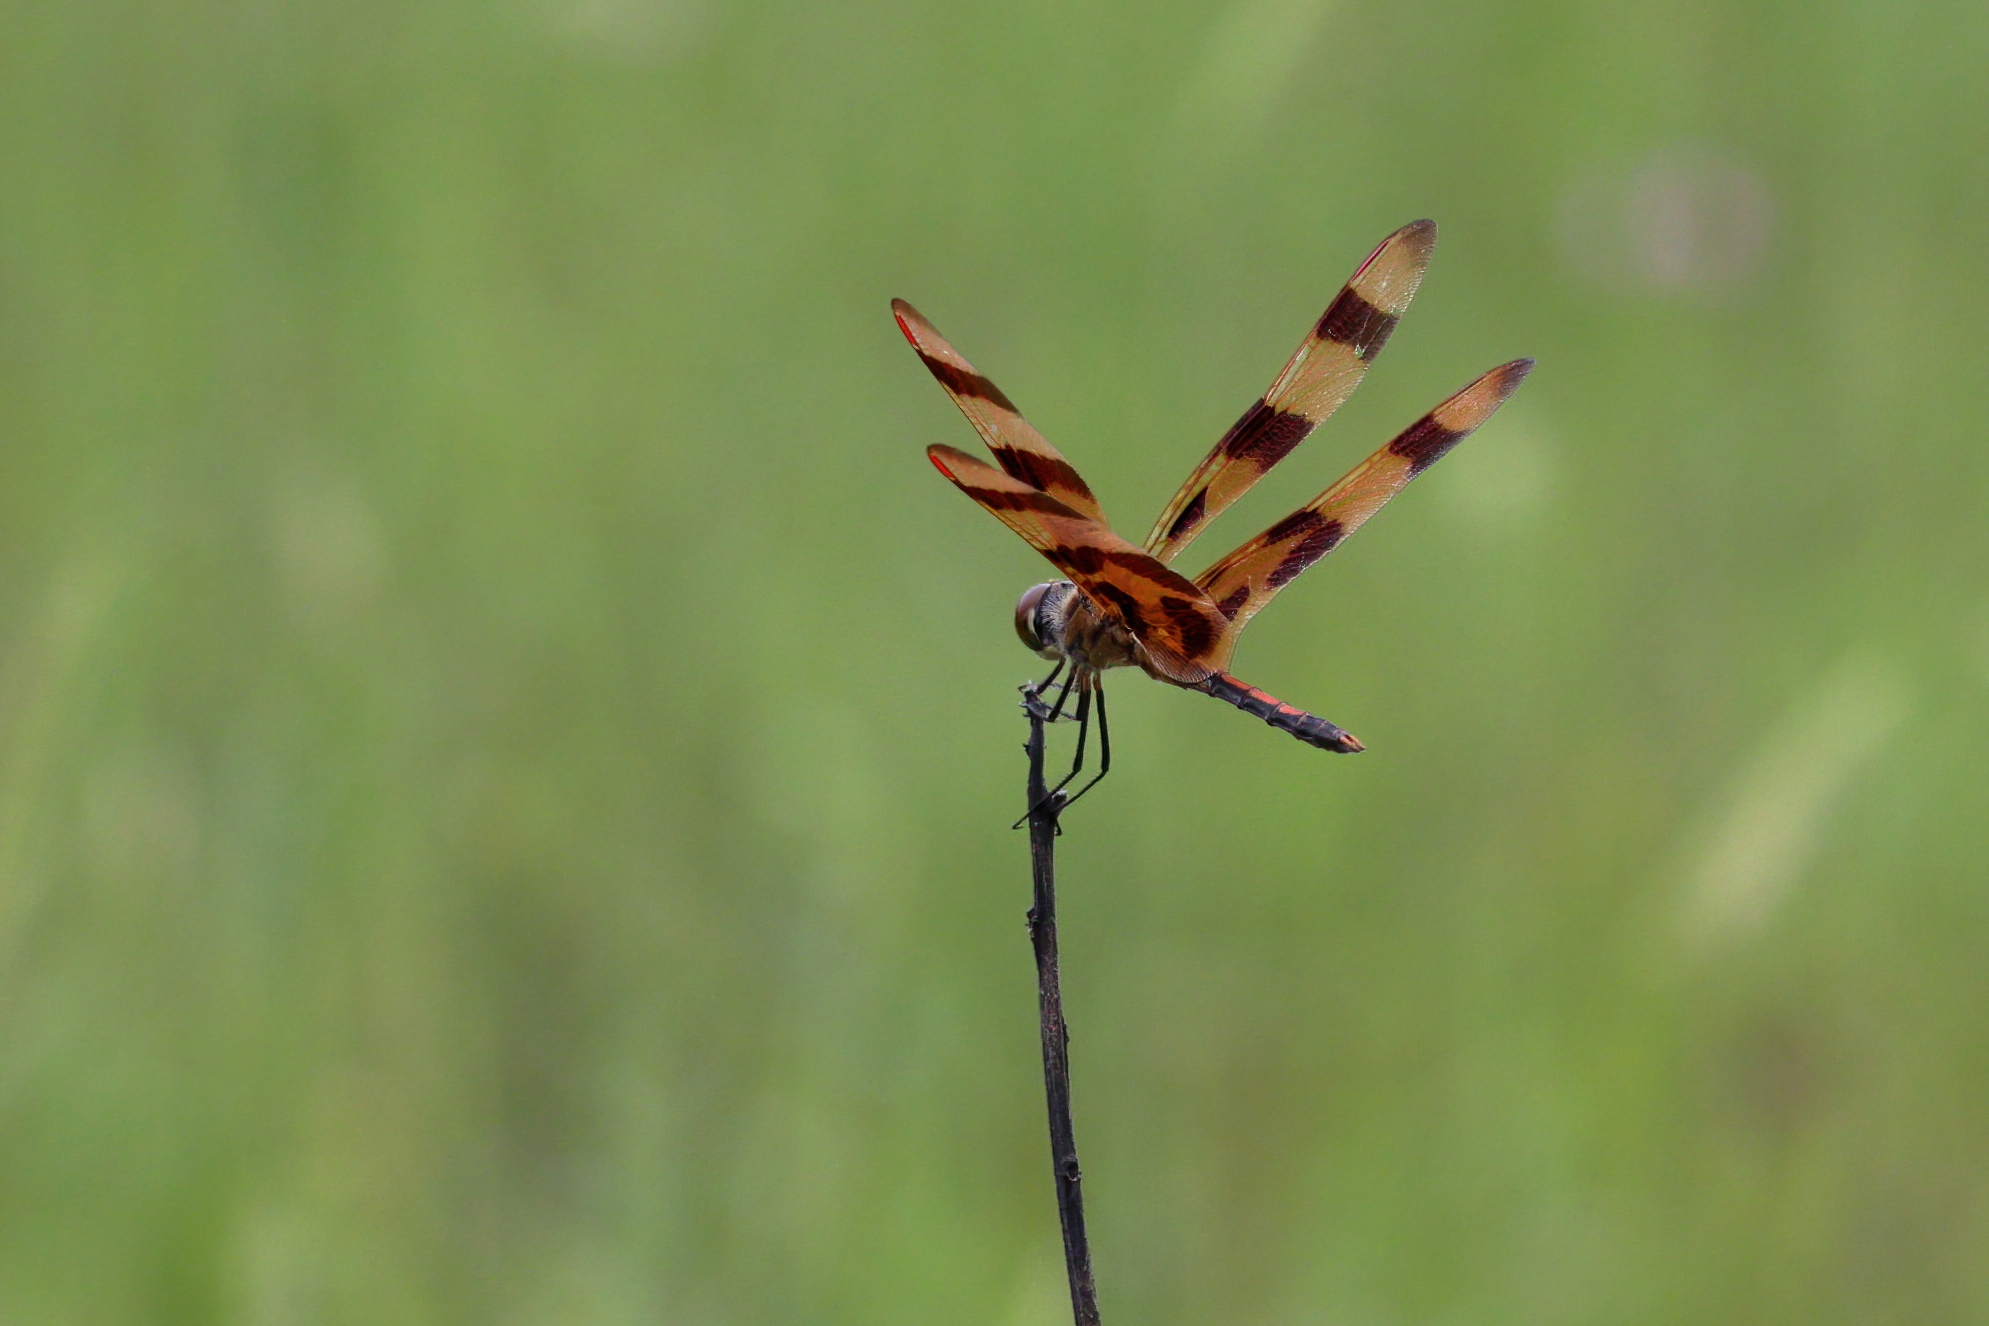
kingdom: Animalia
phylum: Arthropoda
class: Insecta
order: Odonata
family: Libellulidae
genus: Celithemis
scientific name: Celithemis eponina
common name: Halloween pennant
